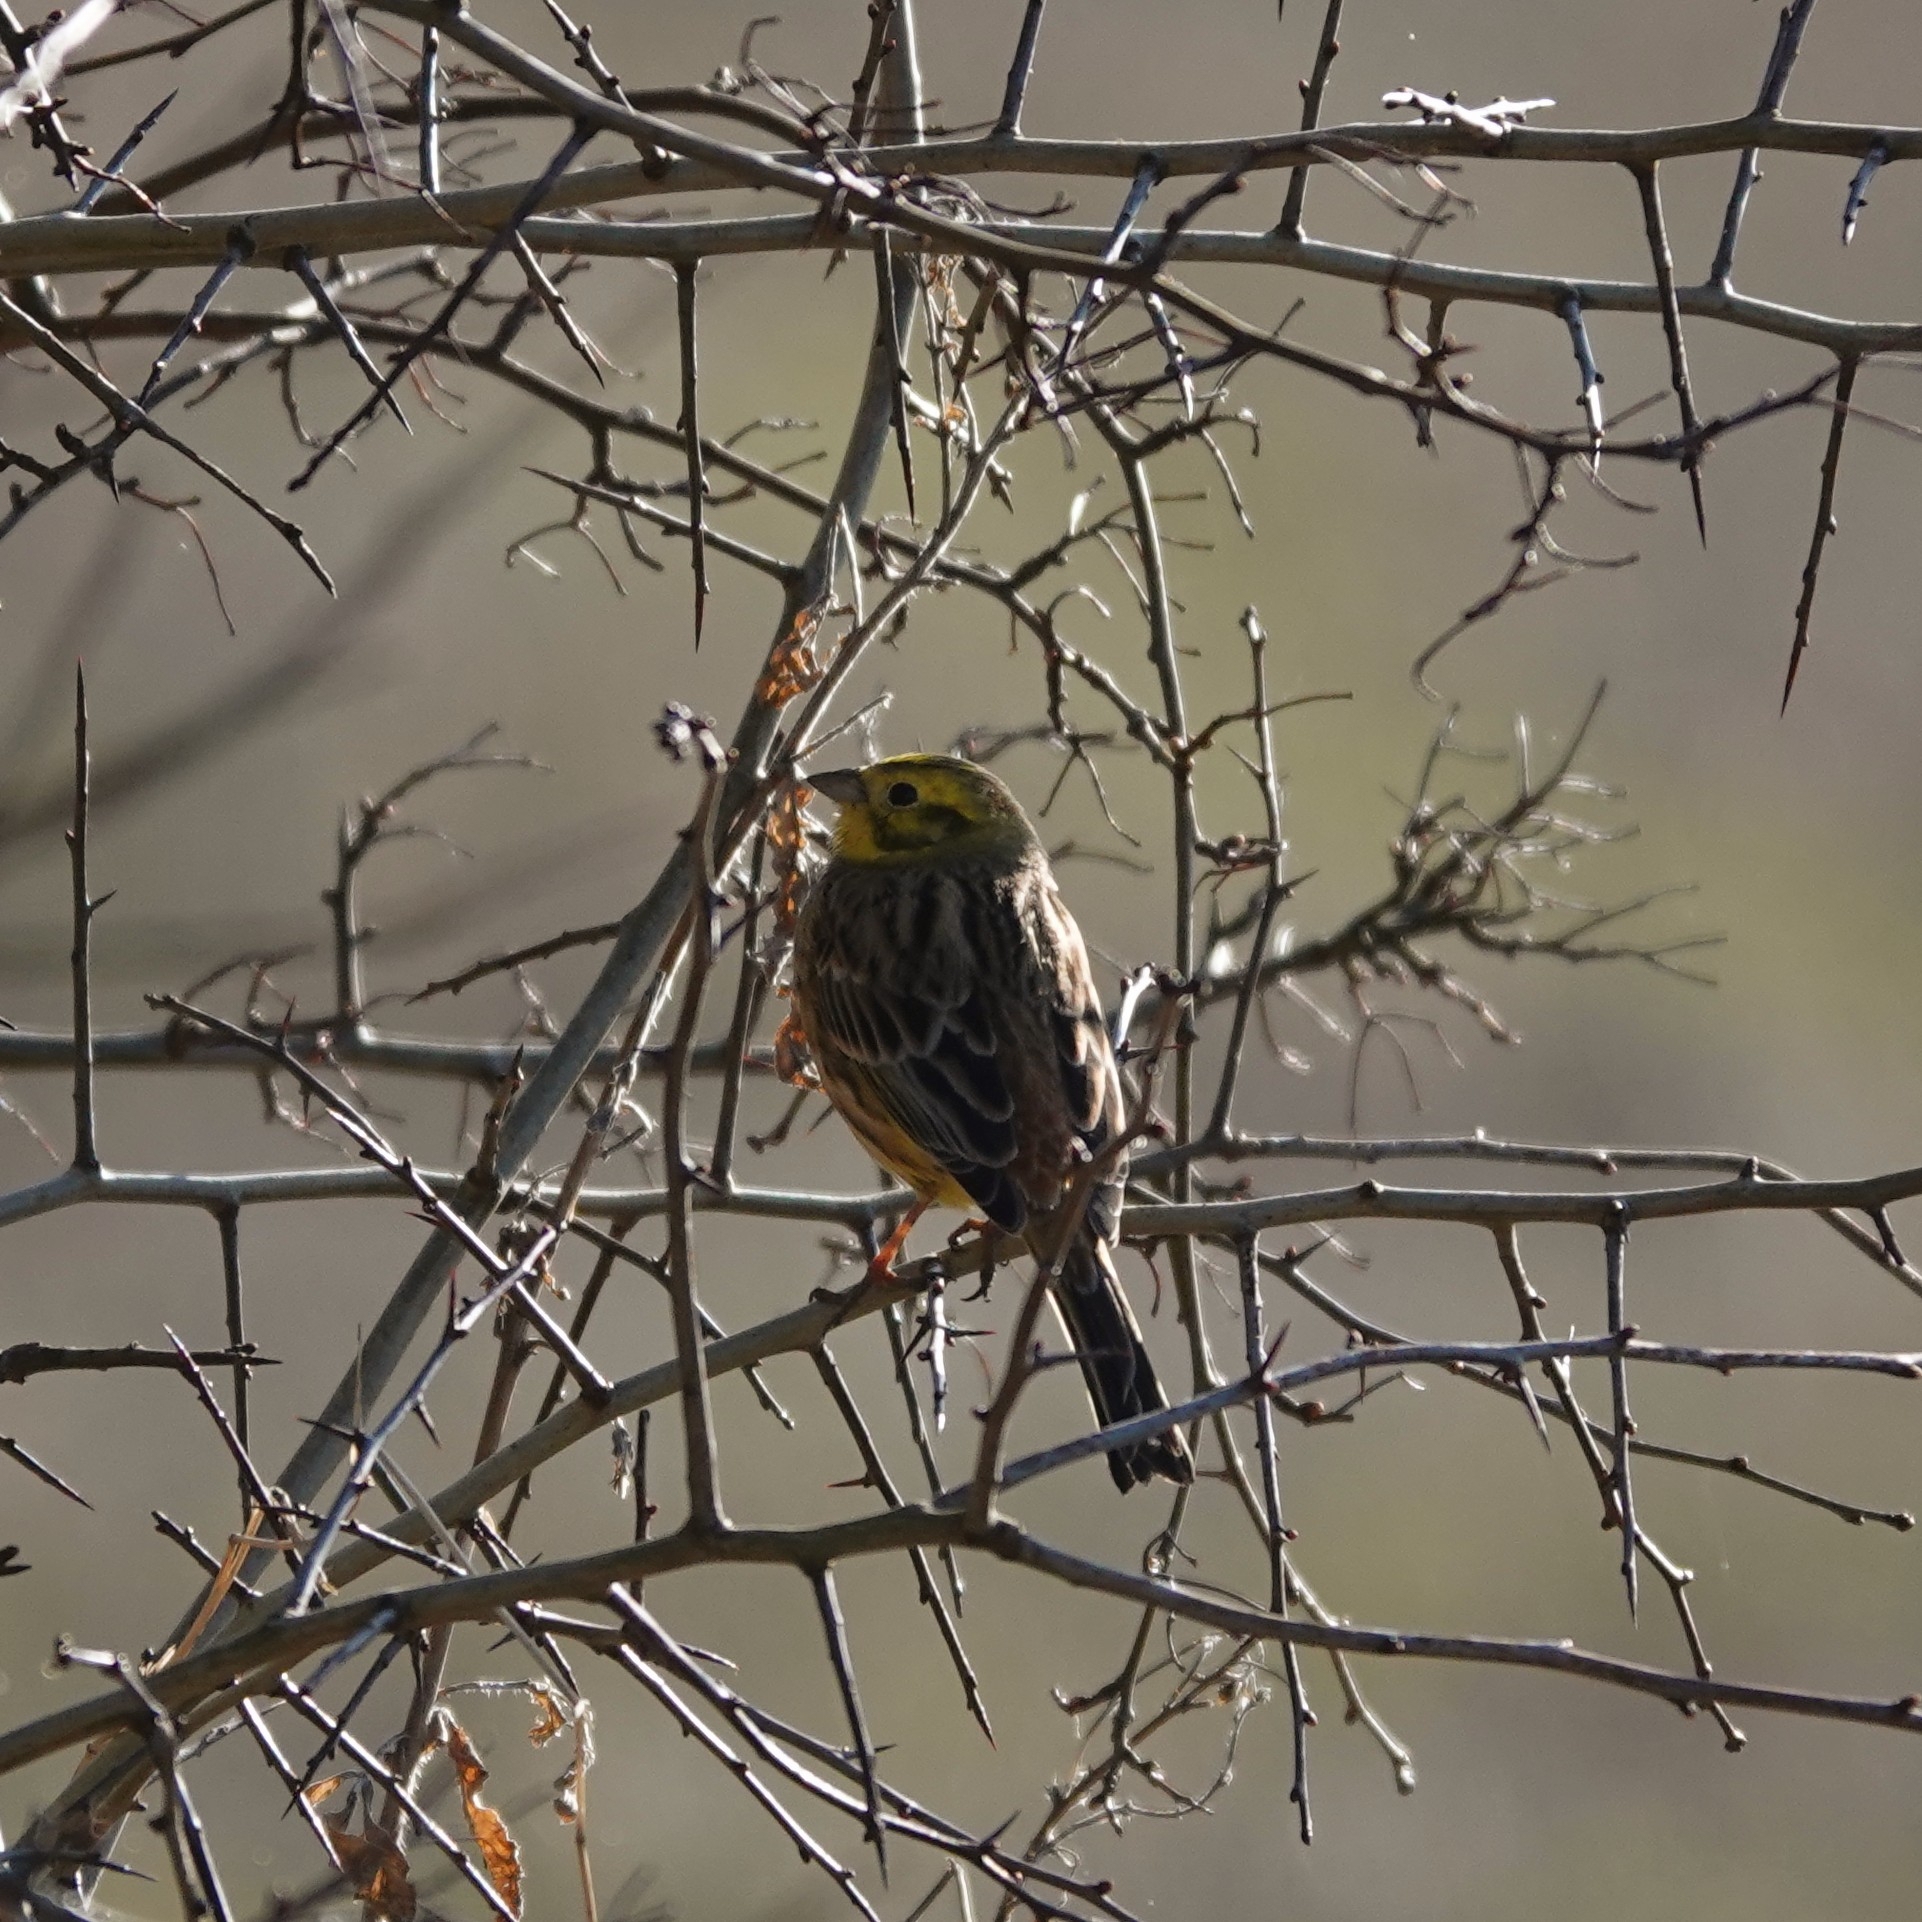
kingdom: Animalia
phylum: Chordata
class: Aves
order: Passeriformes
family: Emberizidae
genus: Emberiza
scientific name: Emberiza citrinella
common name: Yellowhammer
